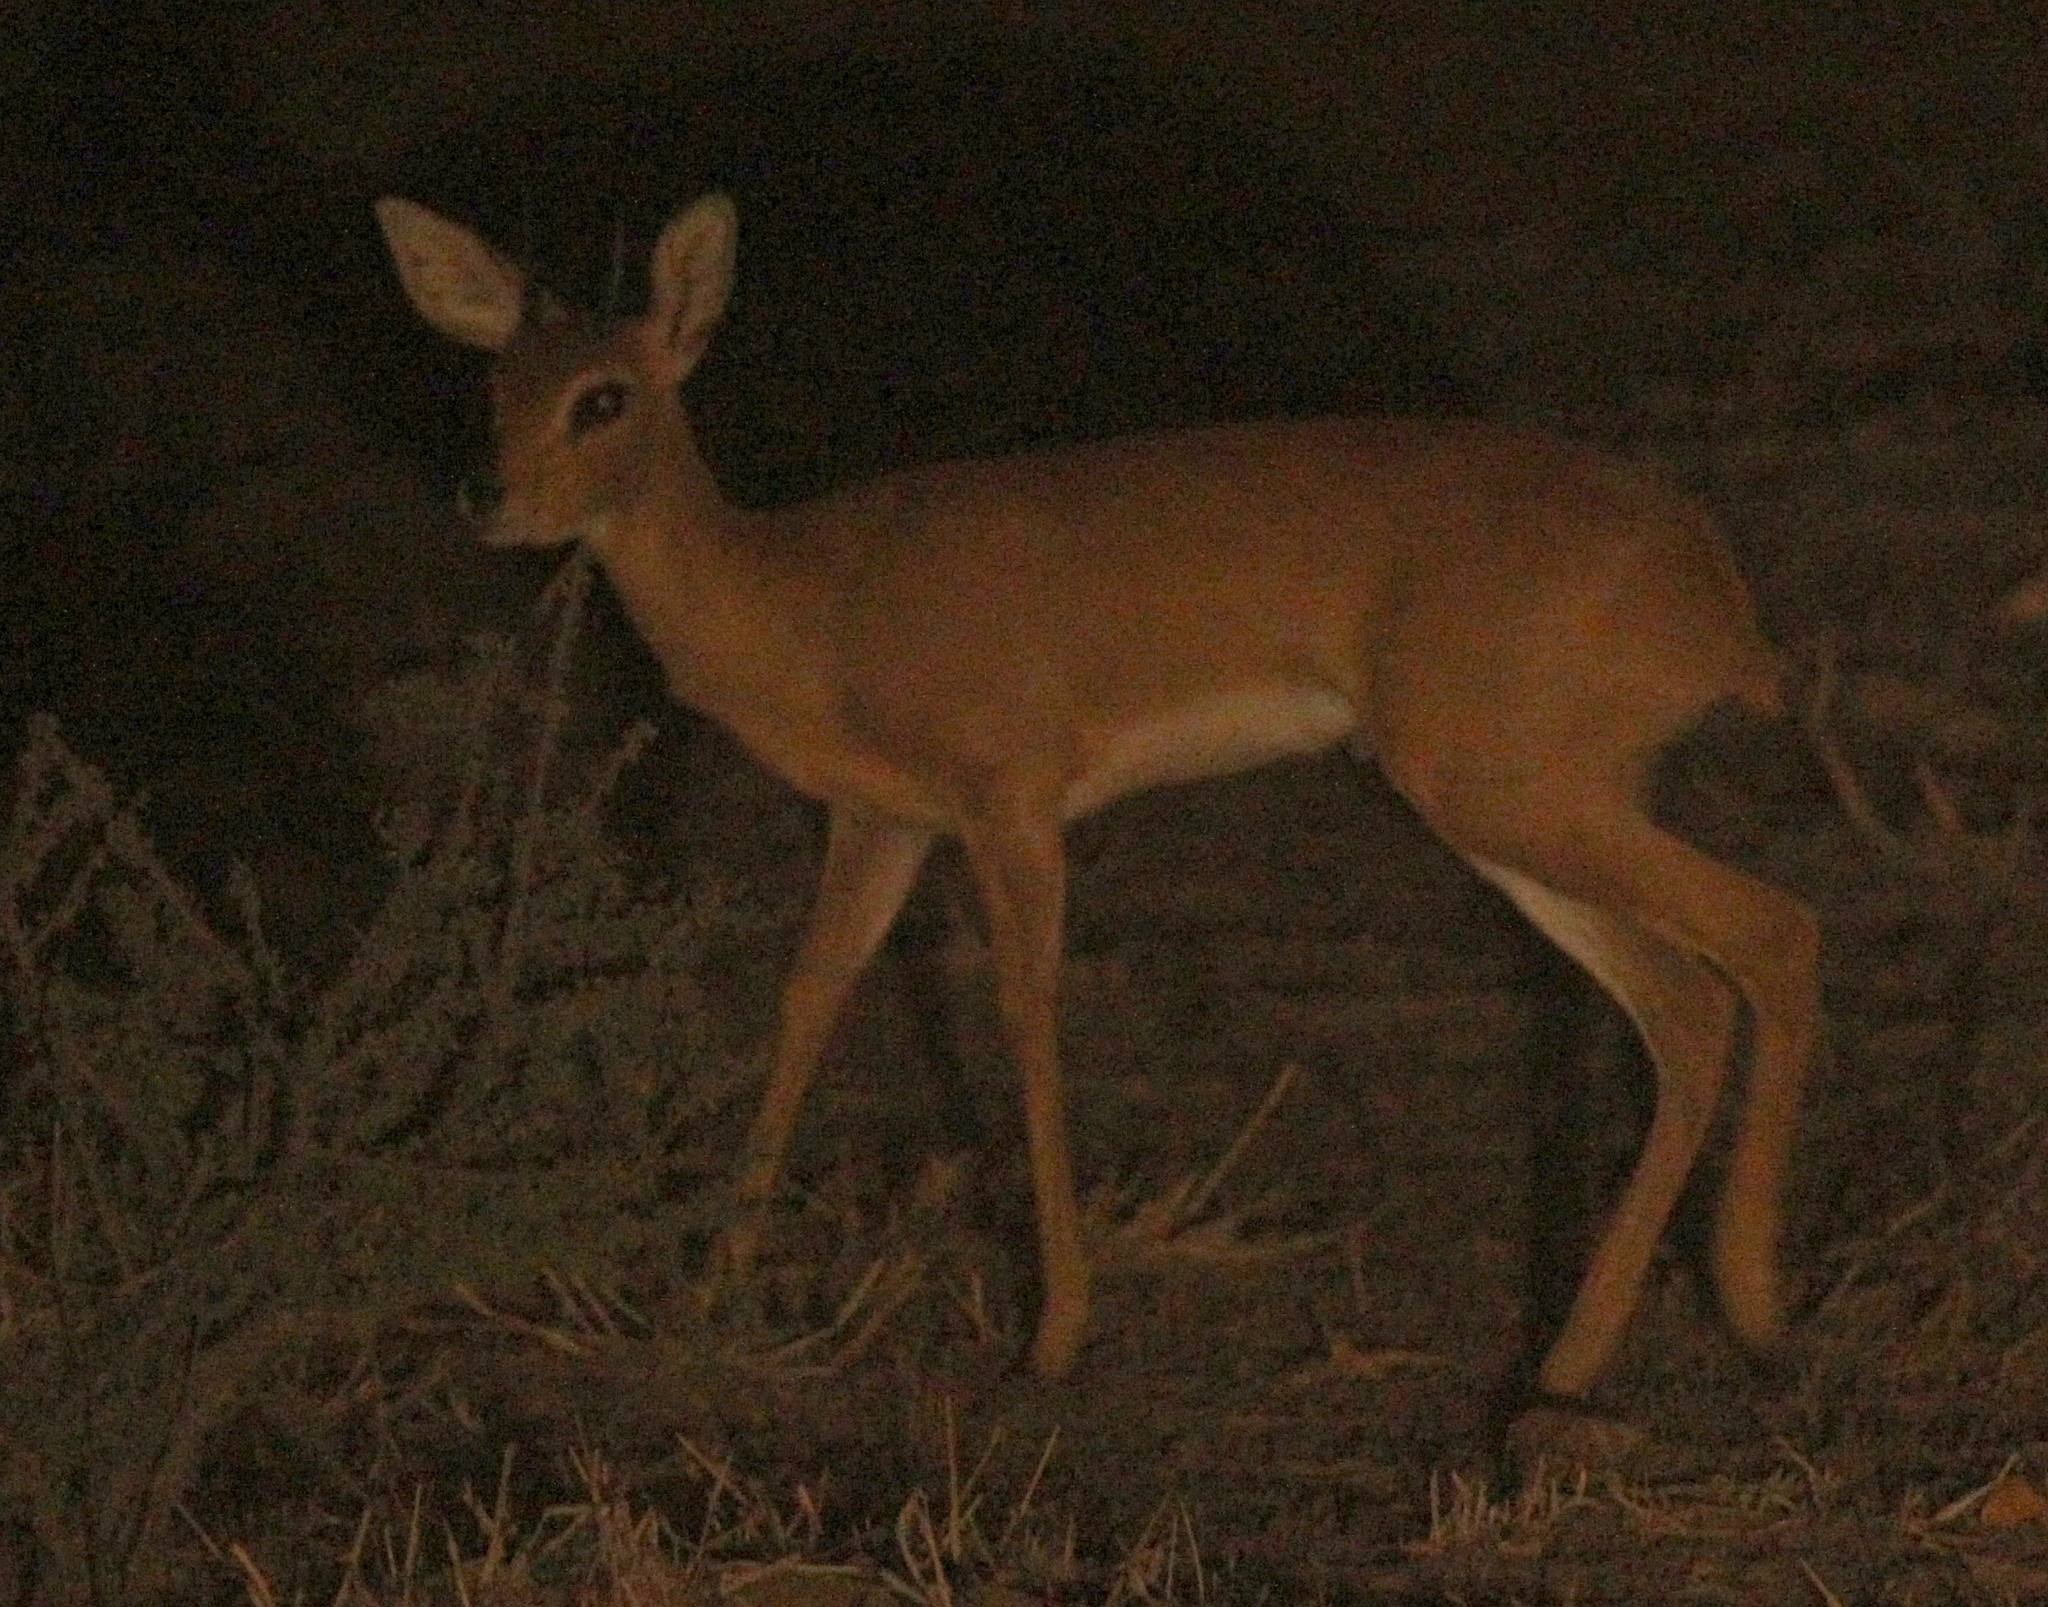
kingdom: Animalia
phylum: Chordata
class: Mammalia
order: Artiodactyla
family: Bovidae
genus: Raphicerus
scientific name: Raphicerus campestris
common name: Steenbok
